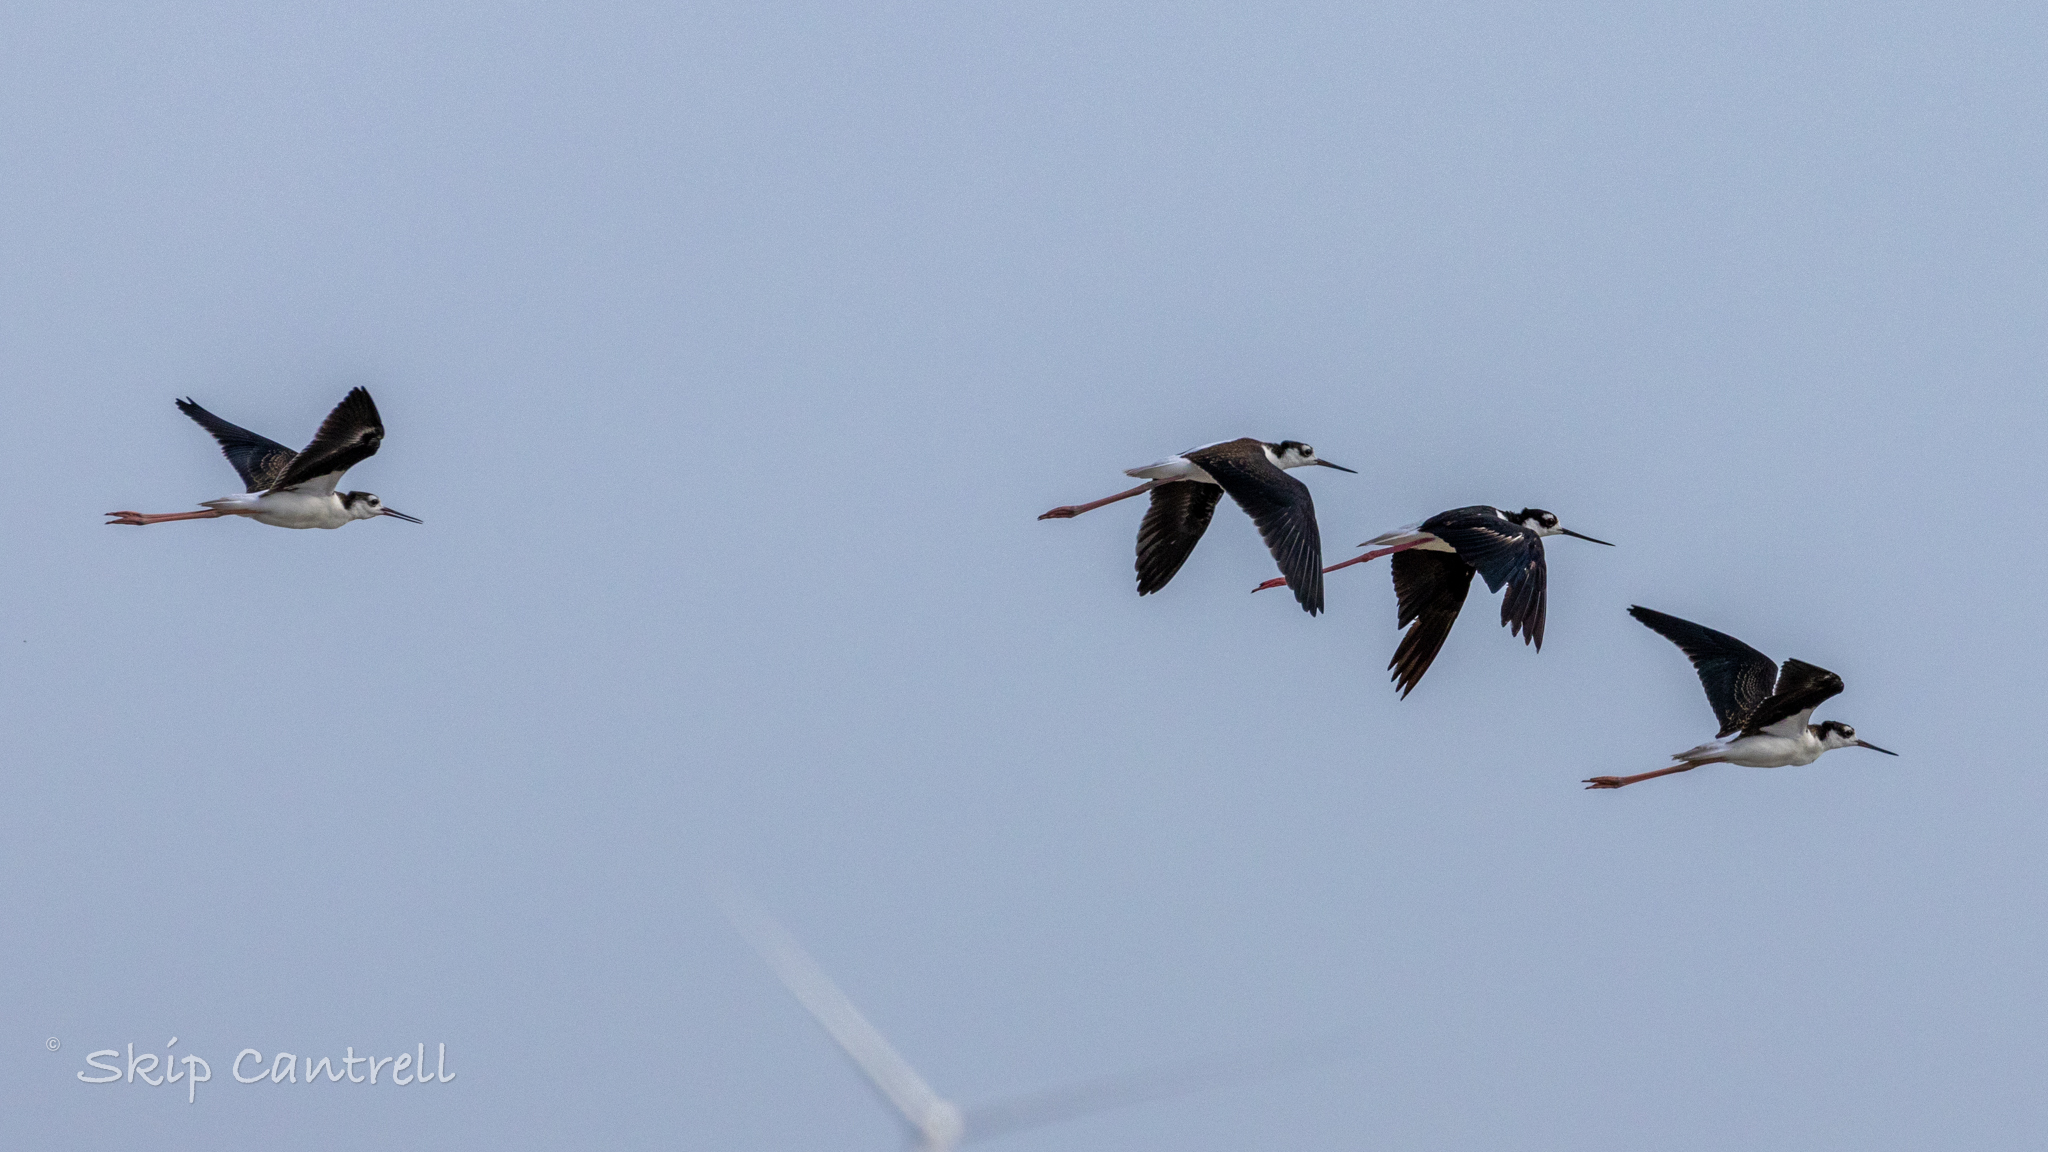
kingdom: Animalia
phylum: Chordata
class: Aves
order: Charadriiformes
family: Recurvirostridae
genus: Himantopus
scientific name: Himantopus mexicanus
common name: Black-necked stilt
